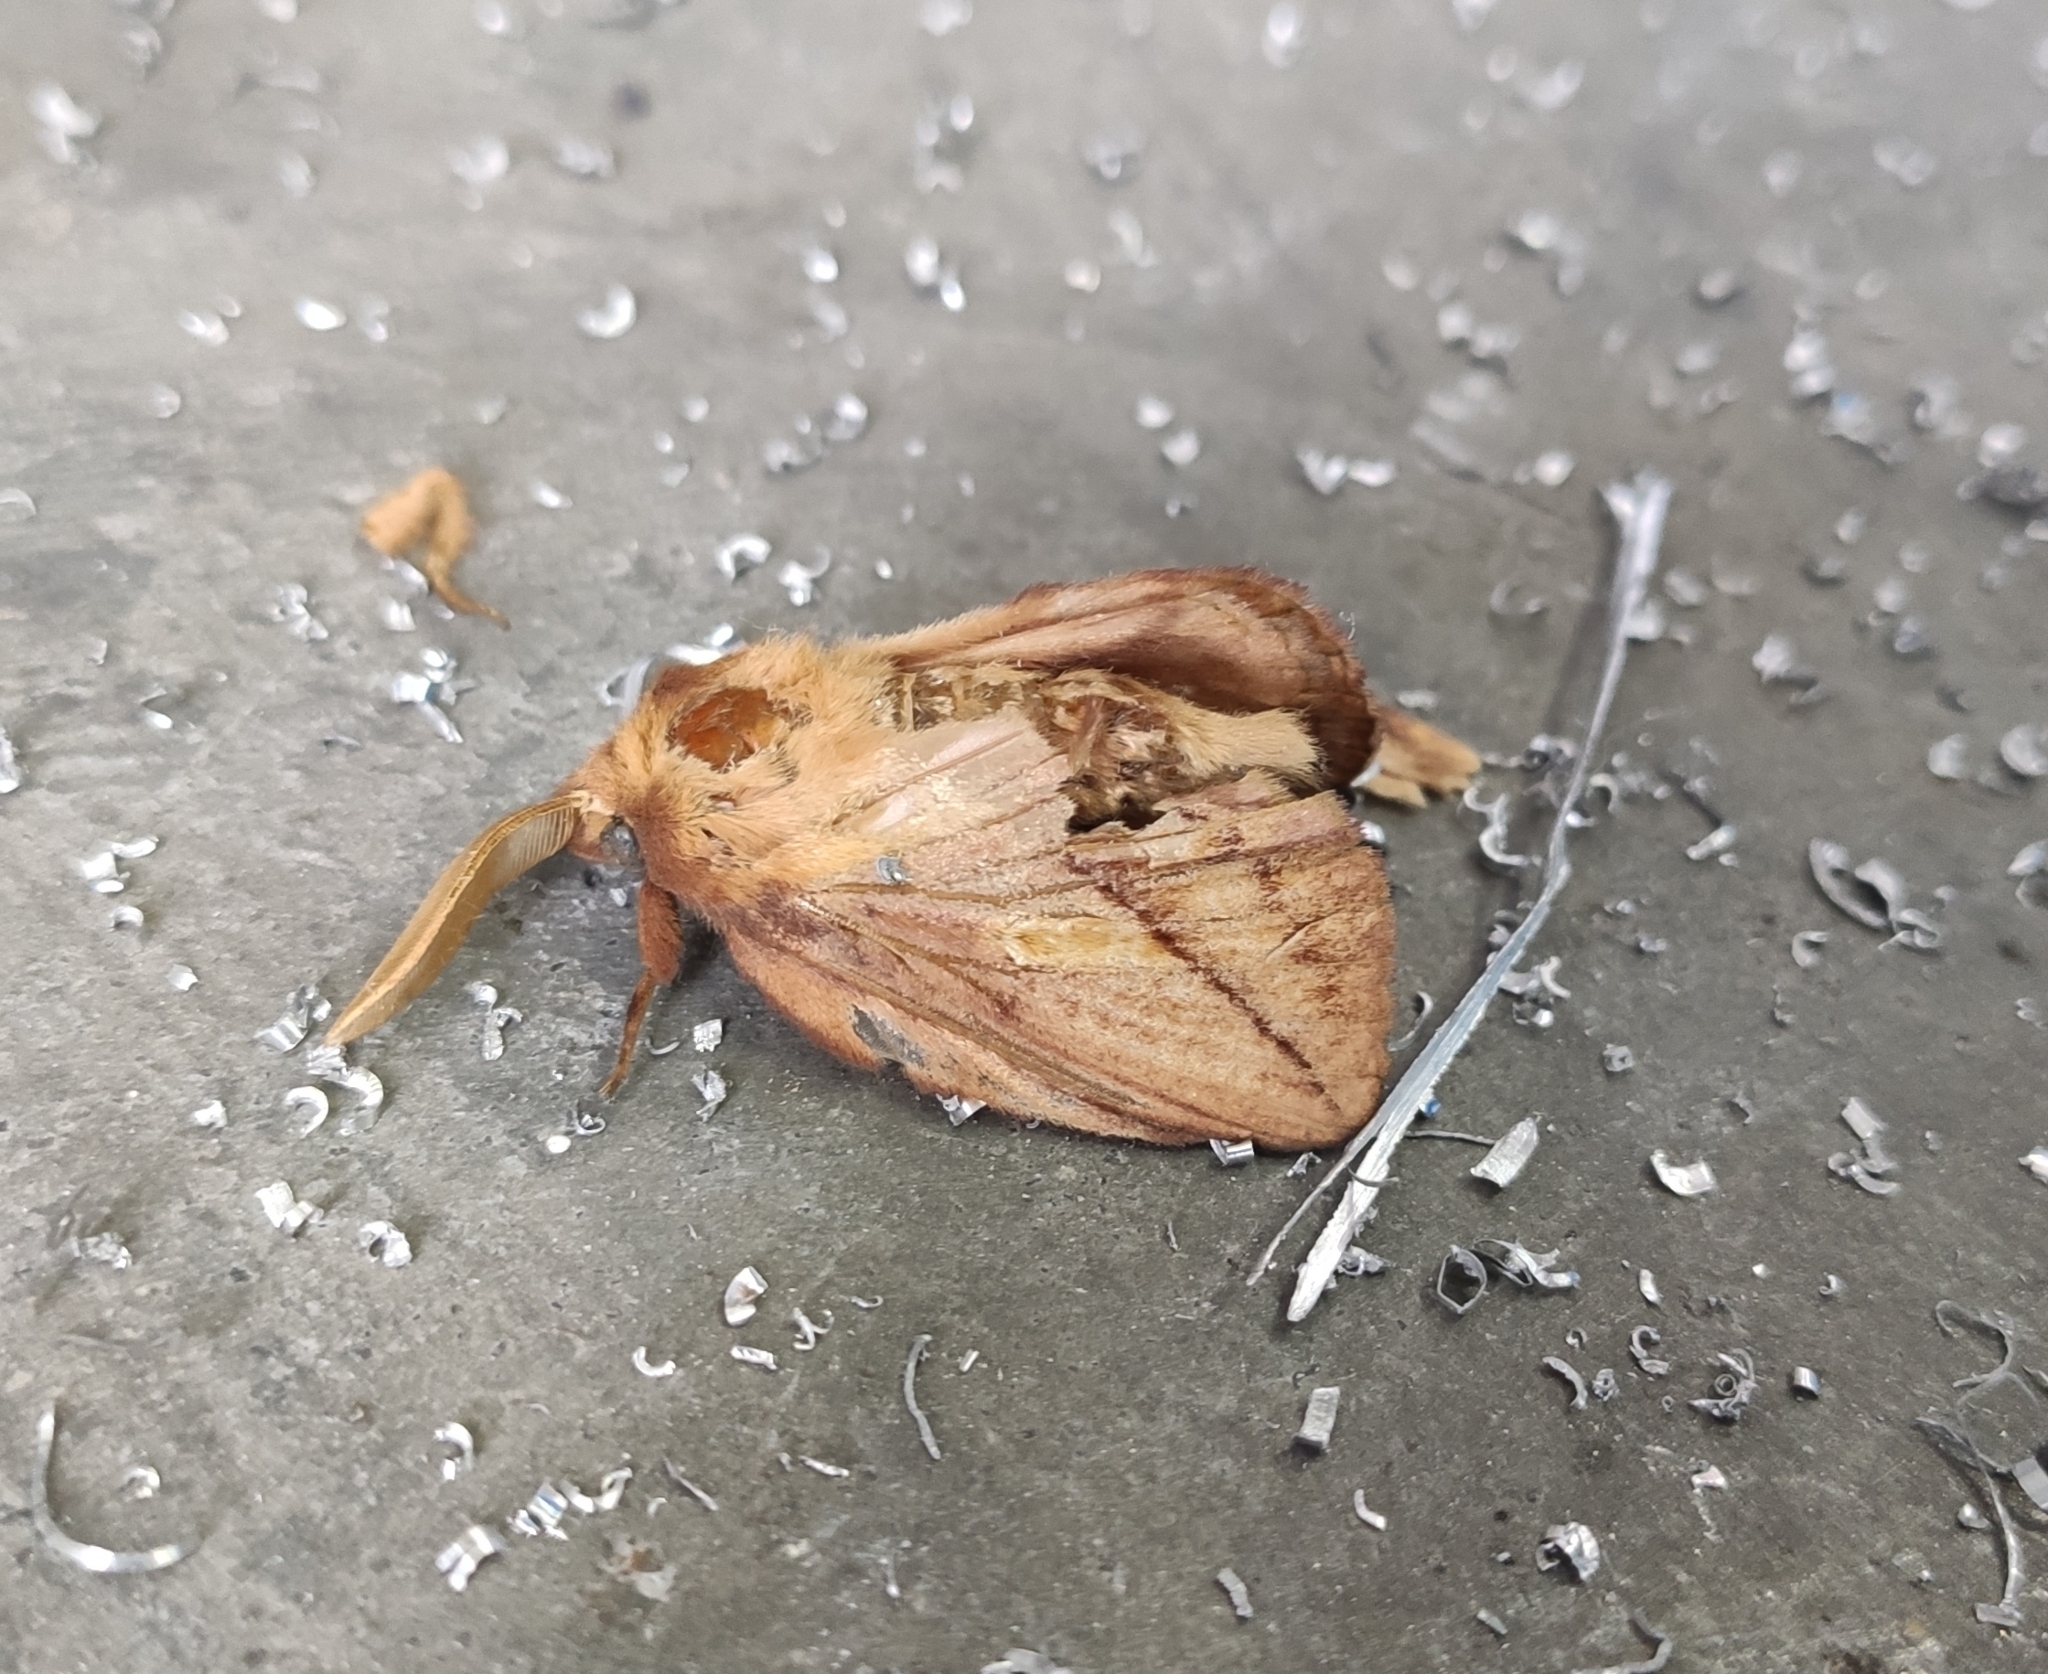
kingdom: Animalia
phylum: Arthropoda
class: Insecta
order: Lepidoptera
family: Lasiocampidae
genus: Euthrix
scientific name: Euthrix potatoria
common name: Drinker
